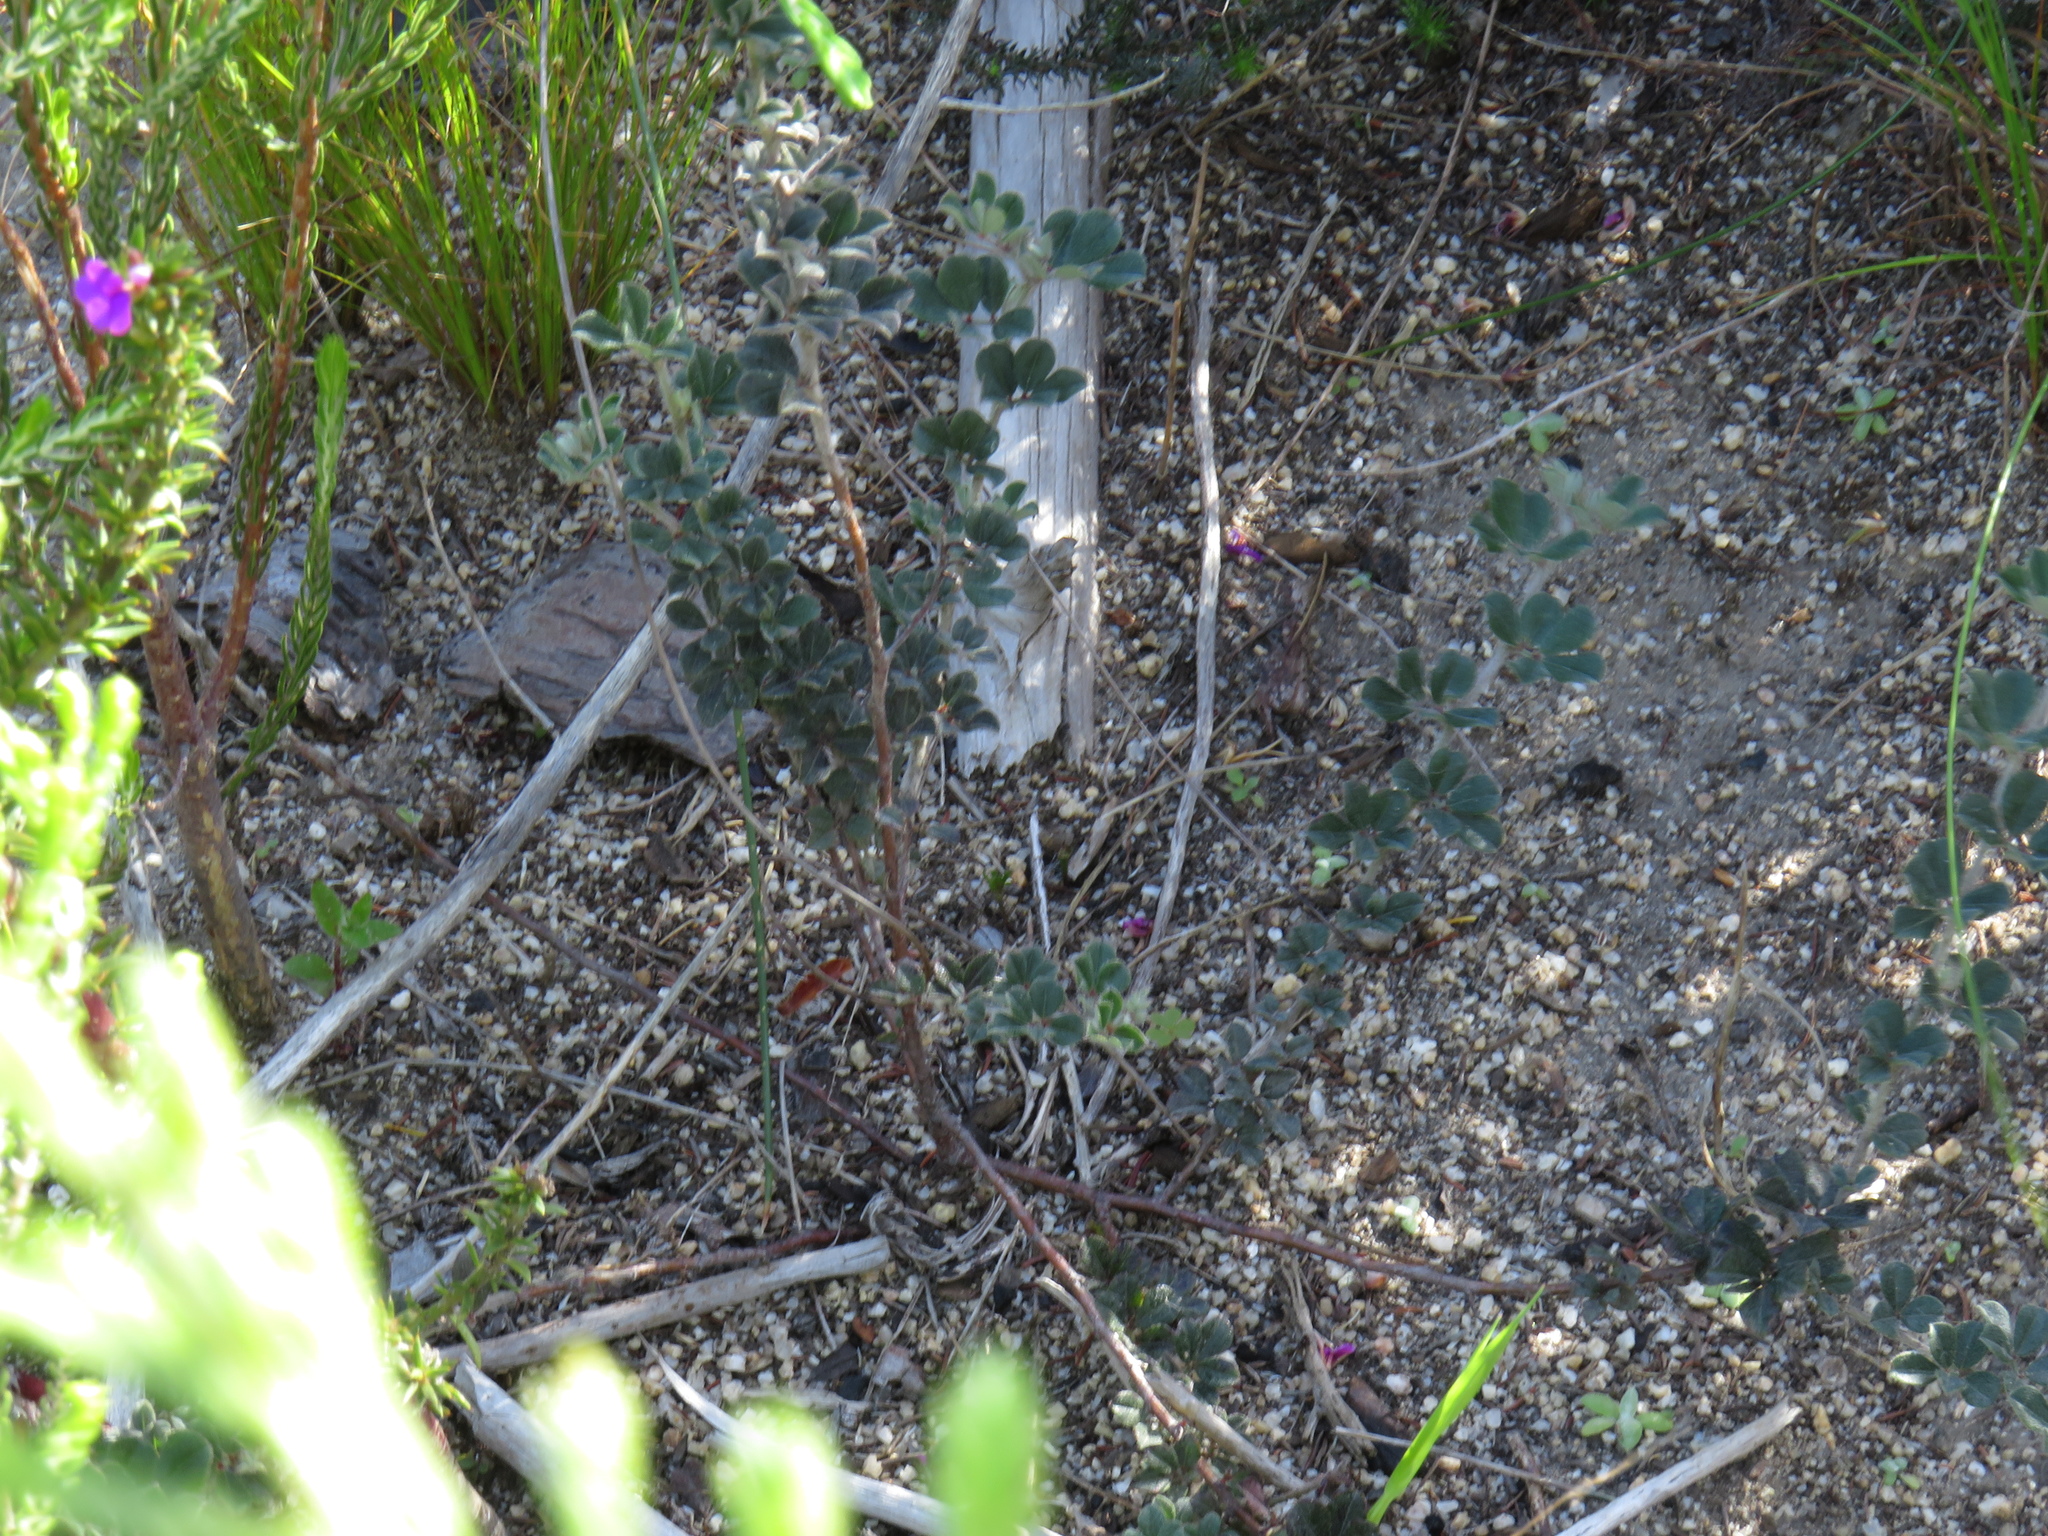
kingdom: Plantae
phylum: Tracheophyta
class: Magnoliopsida
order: Fabales
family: Fabaceae
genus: Indigofera
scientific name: Indigofera mauritanica
